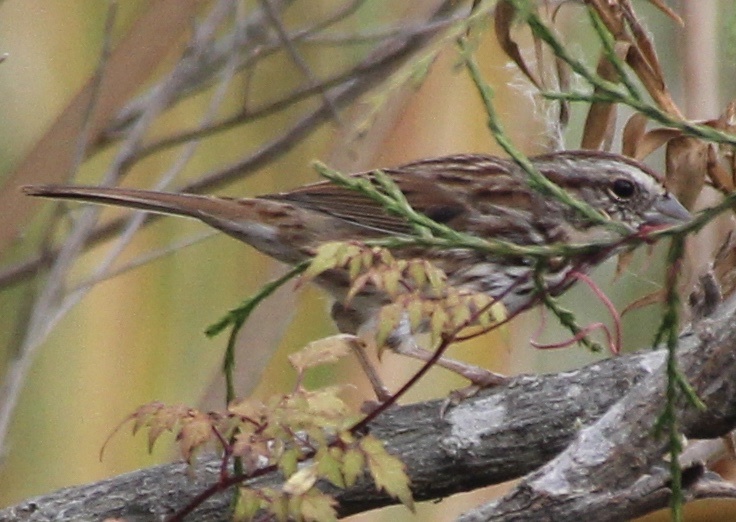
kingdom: Animalia
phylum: Chordata
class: Aves
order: Passeriformes
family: Passerellidae
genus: Melospiza
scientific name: Melospiza melodia
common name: Song sparrow
